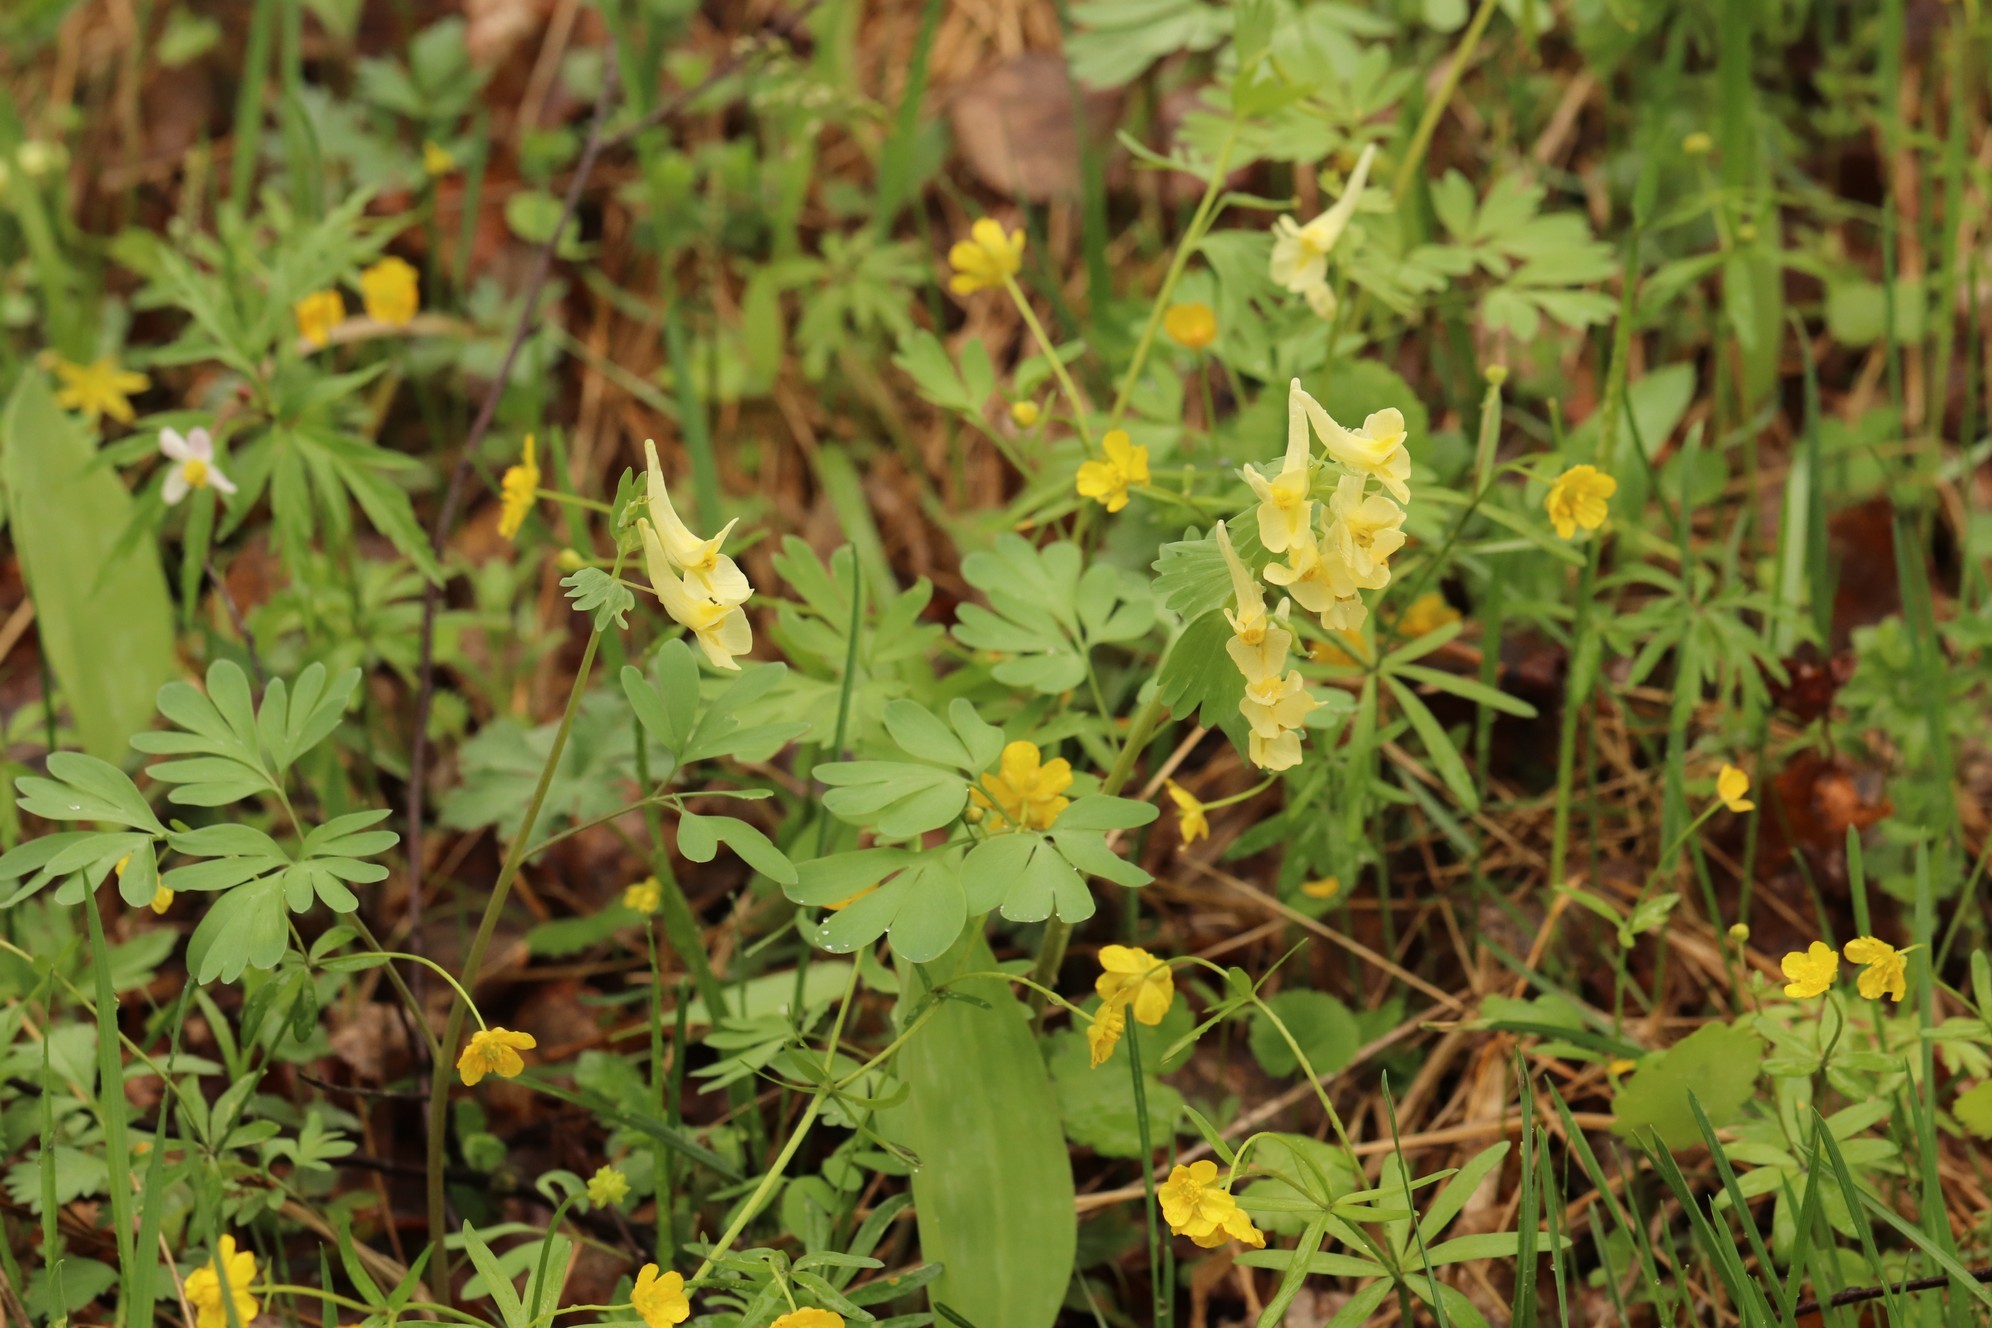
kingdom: Plantae
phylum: Tracheophyta
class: Magnoliopsida
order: Ranunculales
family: Papaveraceae
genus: Corydalis
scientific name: Corydalis bracteata
